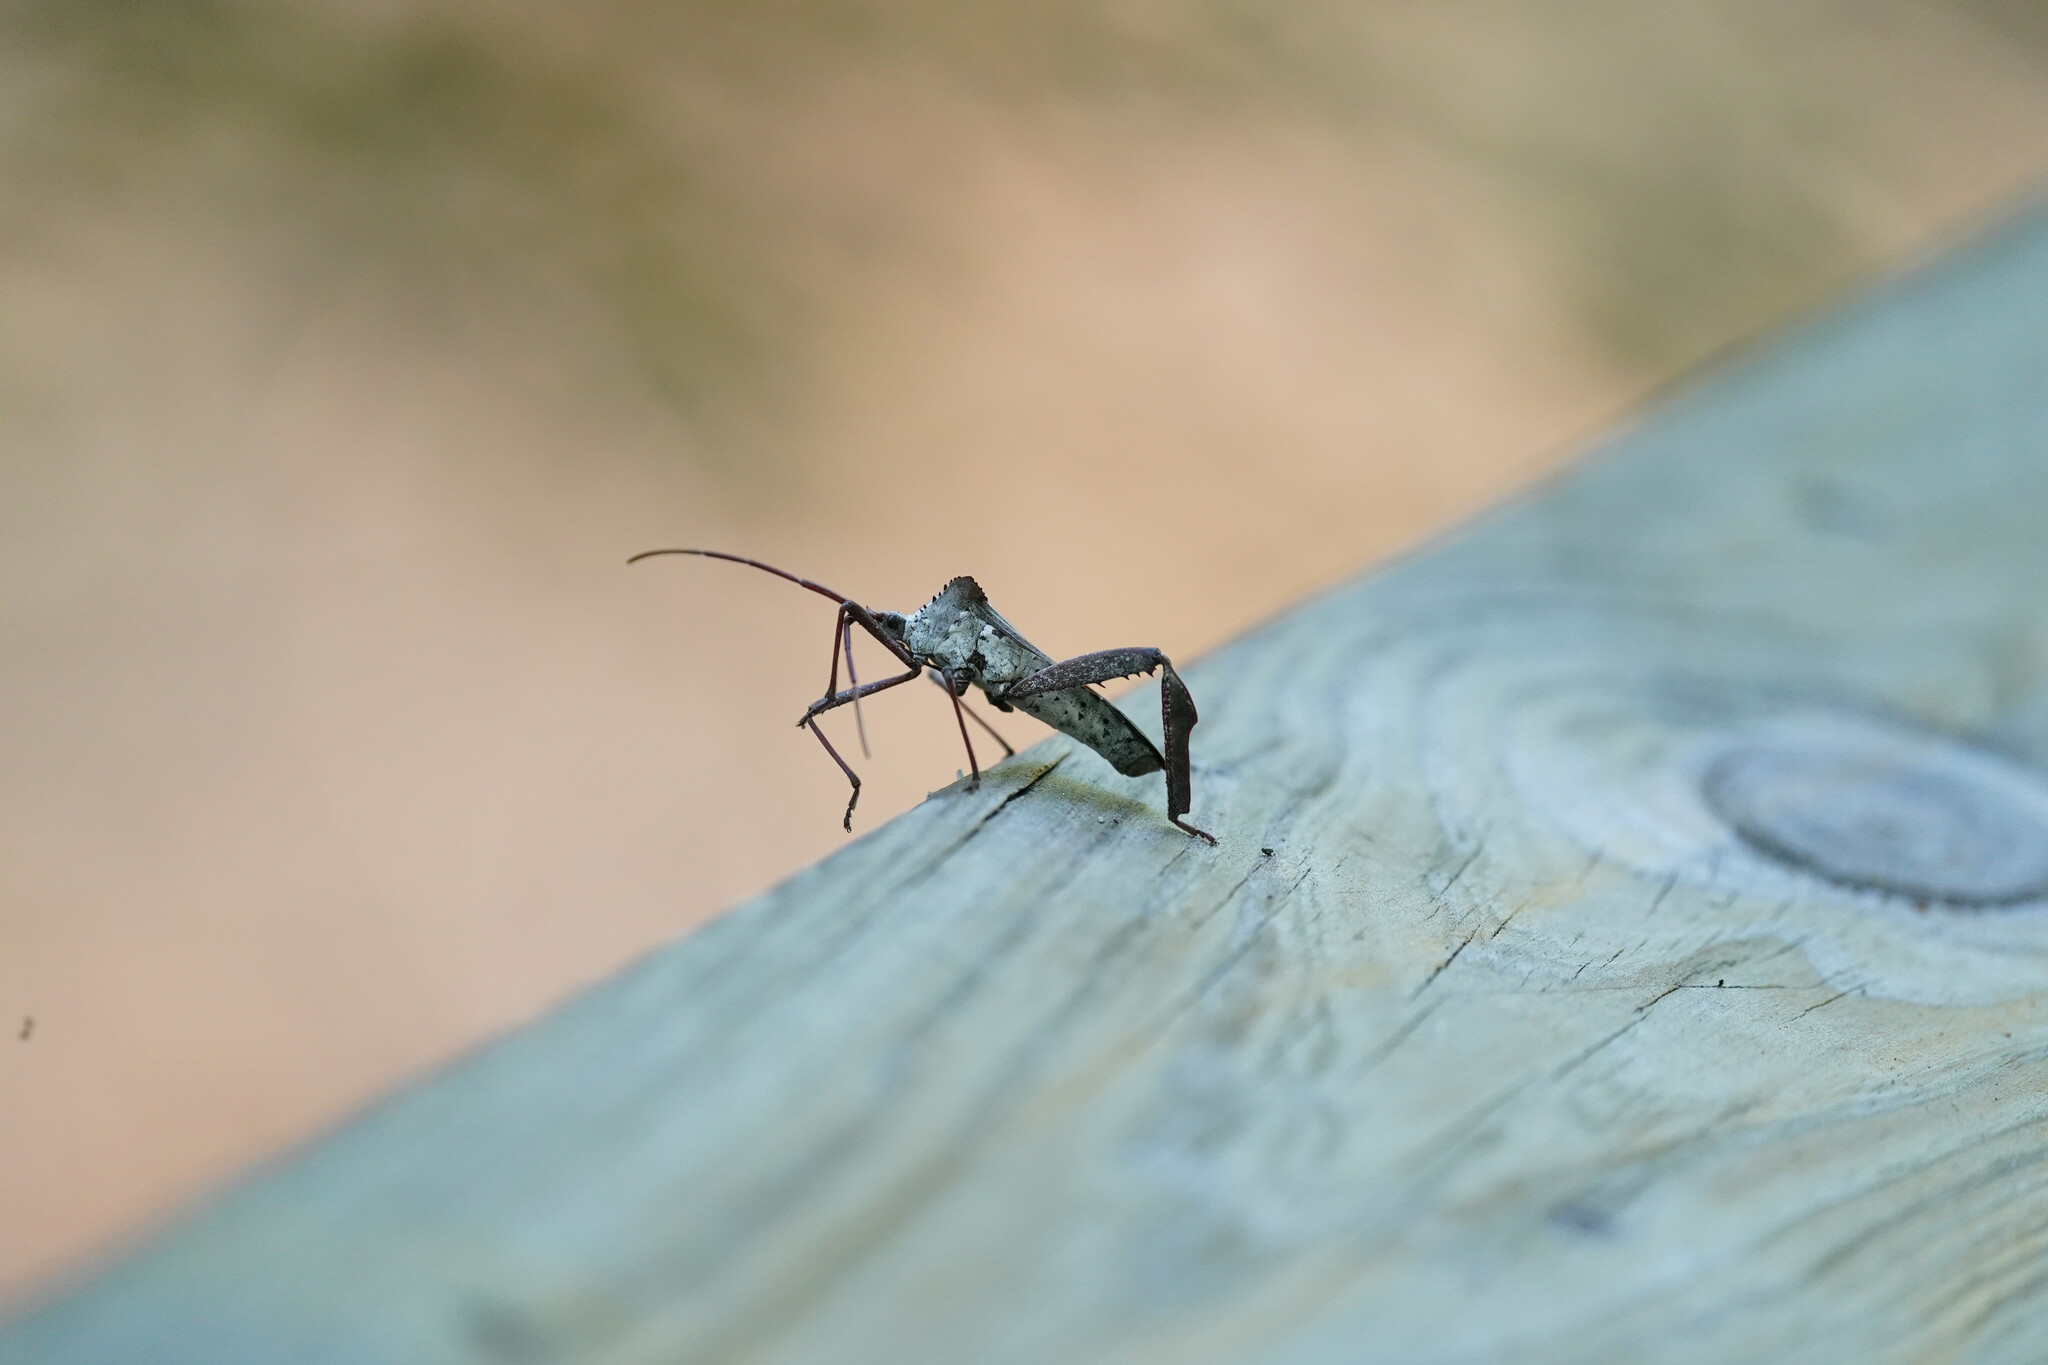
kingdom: Animalia
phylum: Arthropoda
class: Insecta
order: Hemiptera
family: Coreidae
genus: Acanthocephala
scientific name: Acanthocephala declivis
